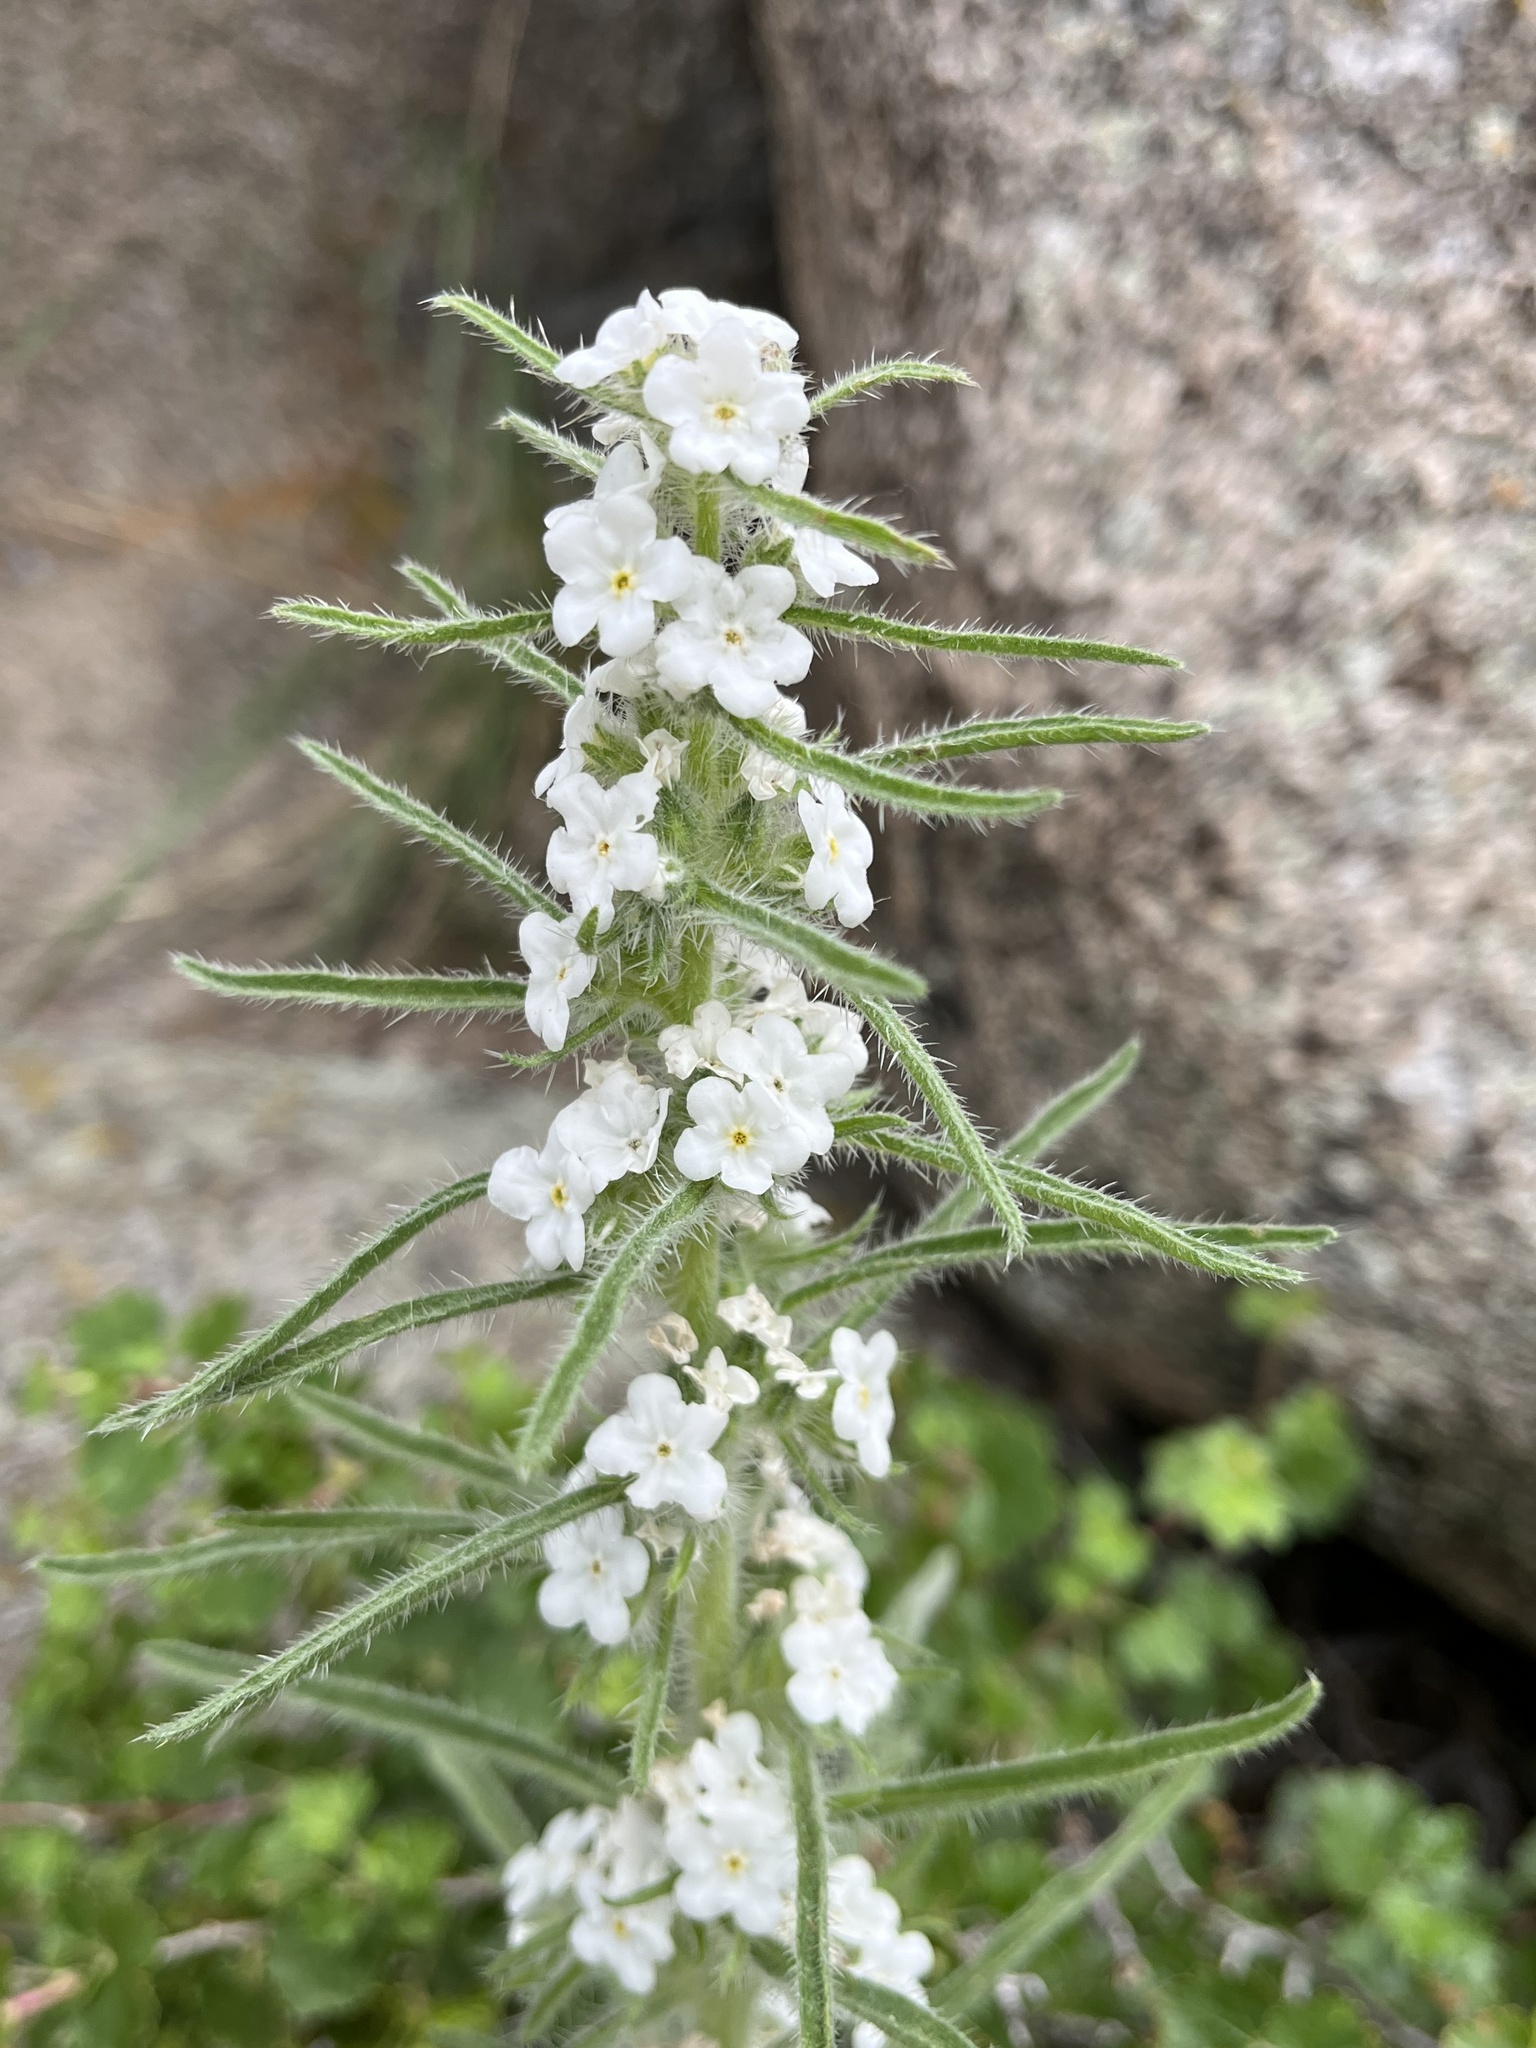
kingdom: Plantae
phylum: Tracheophyta
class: Magnoliopsida
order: Boraginales
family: Boraginaceae
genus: Oreocarya
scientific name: Oreocarya virgata
